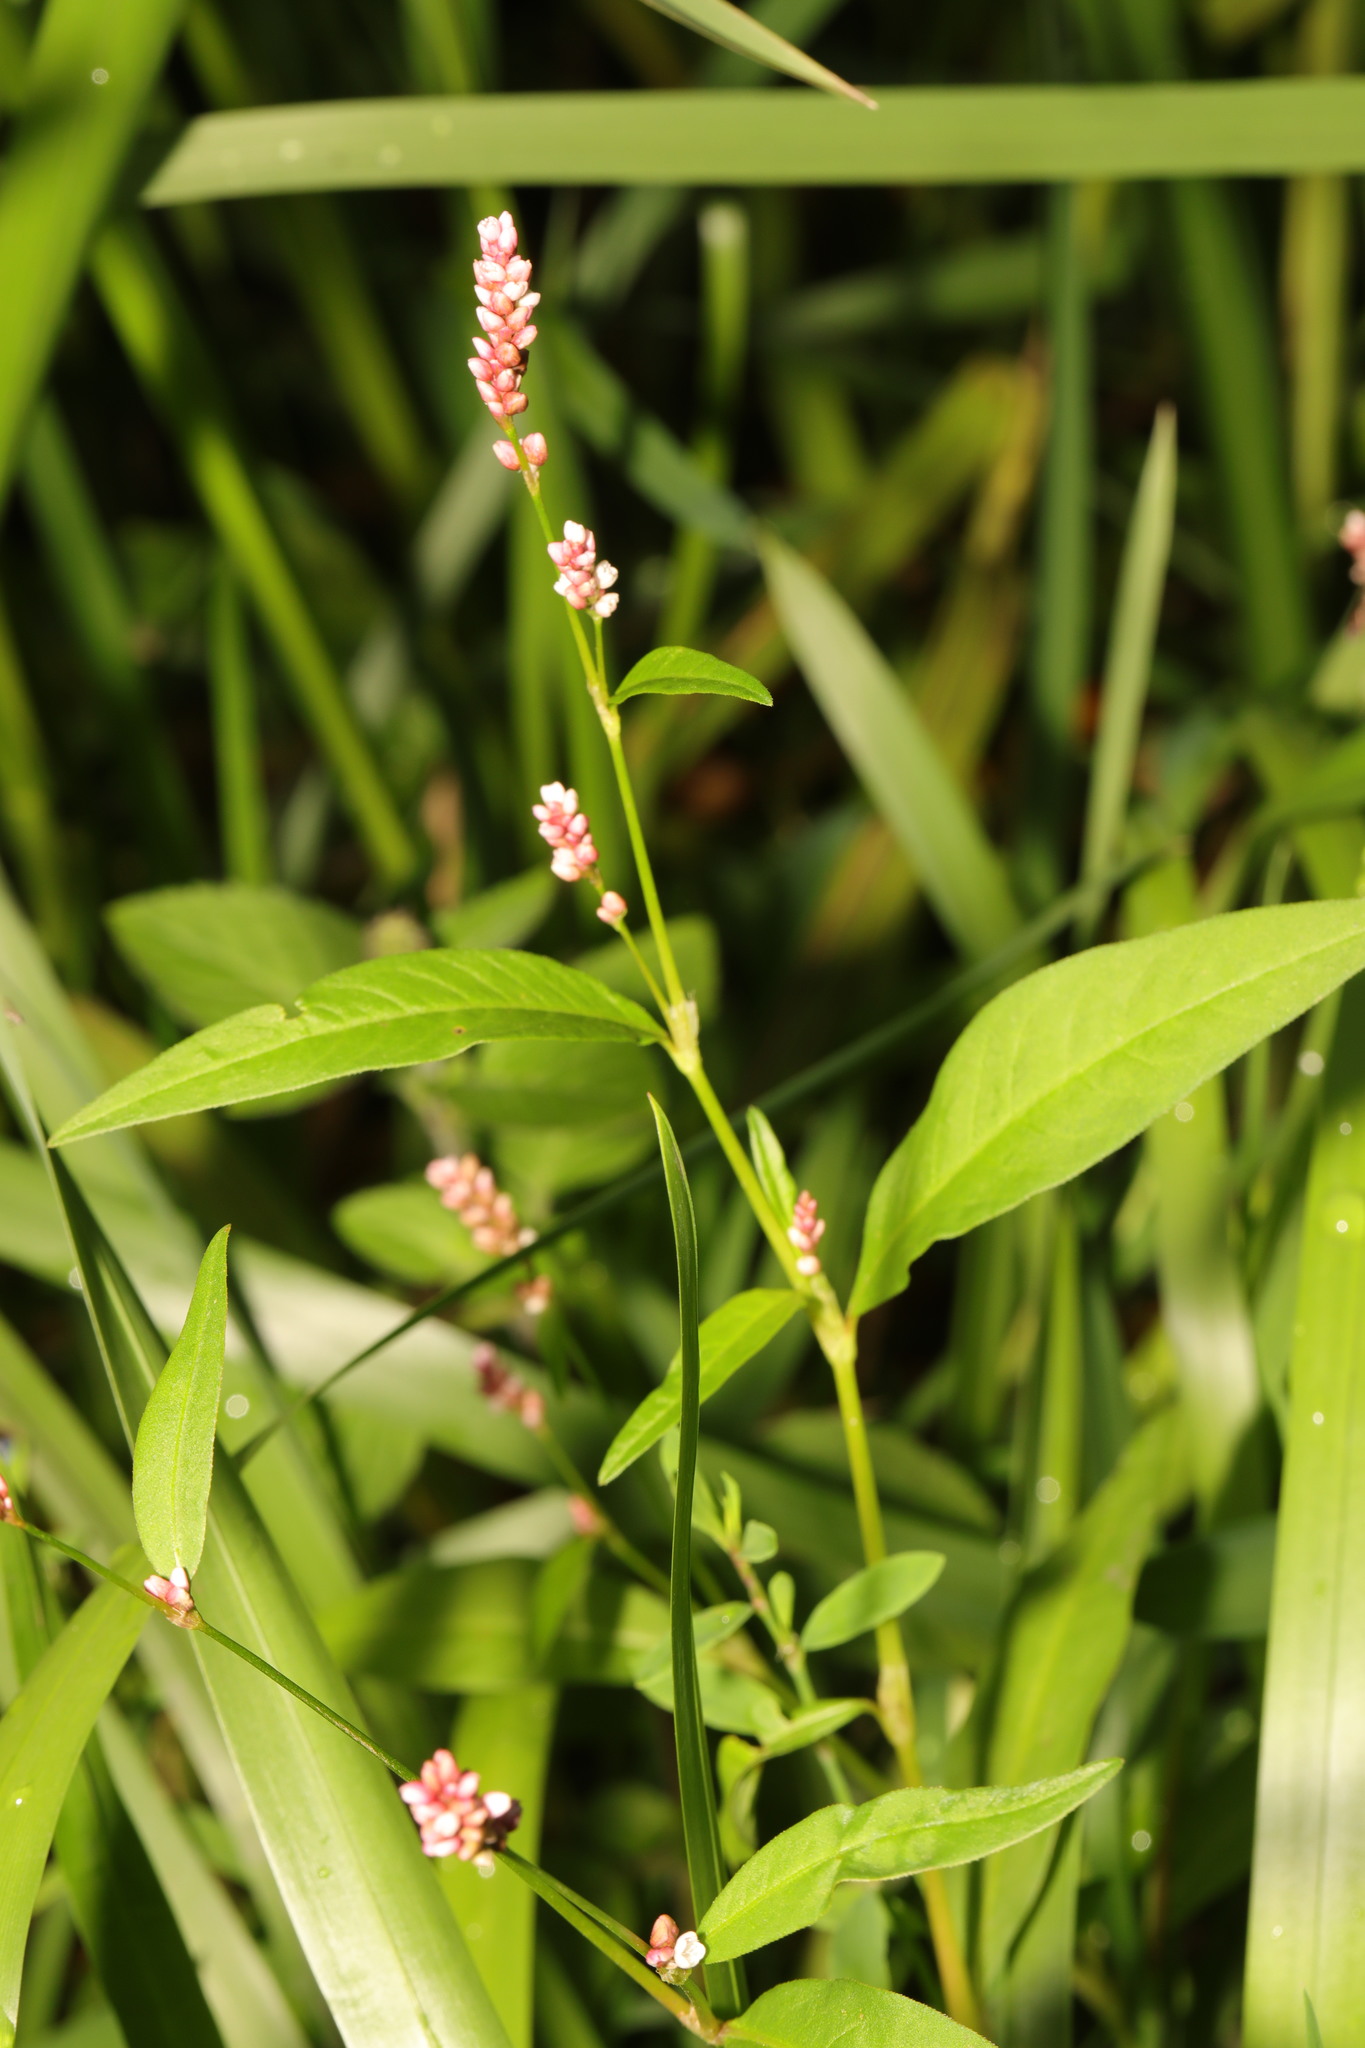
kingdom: Plantae
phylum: Tracheophyta
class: Magnoliopsida
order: Caryophyllales
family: Polygonaceae
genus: Persicaria
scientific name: Persicaria maculosa
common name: Redshank
